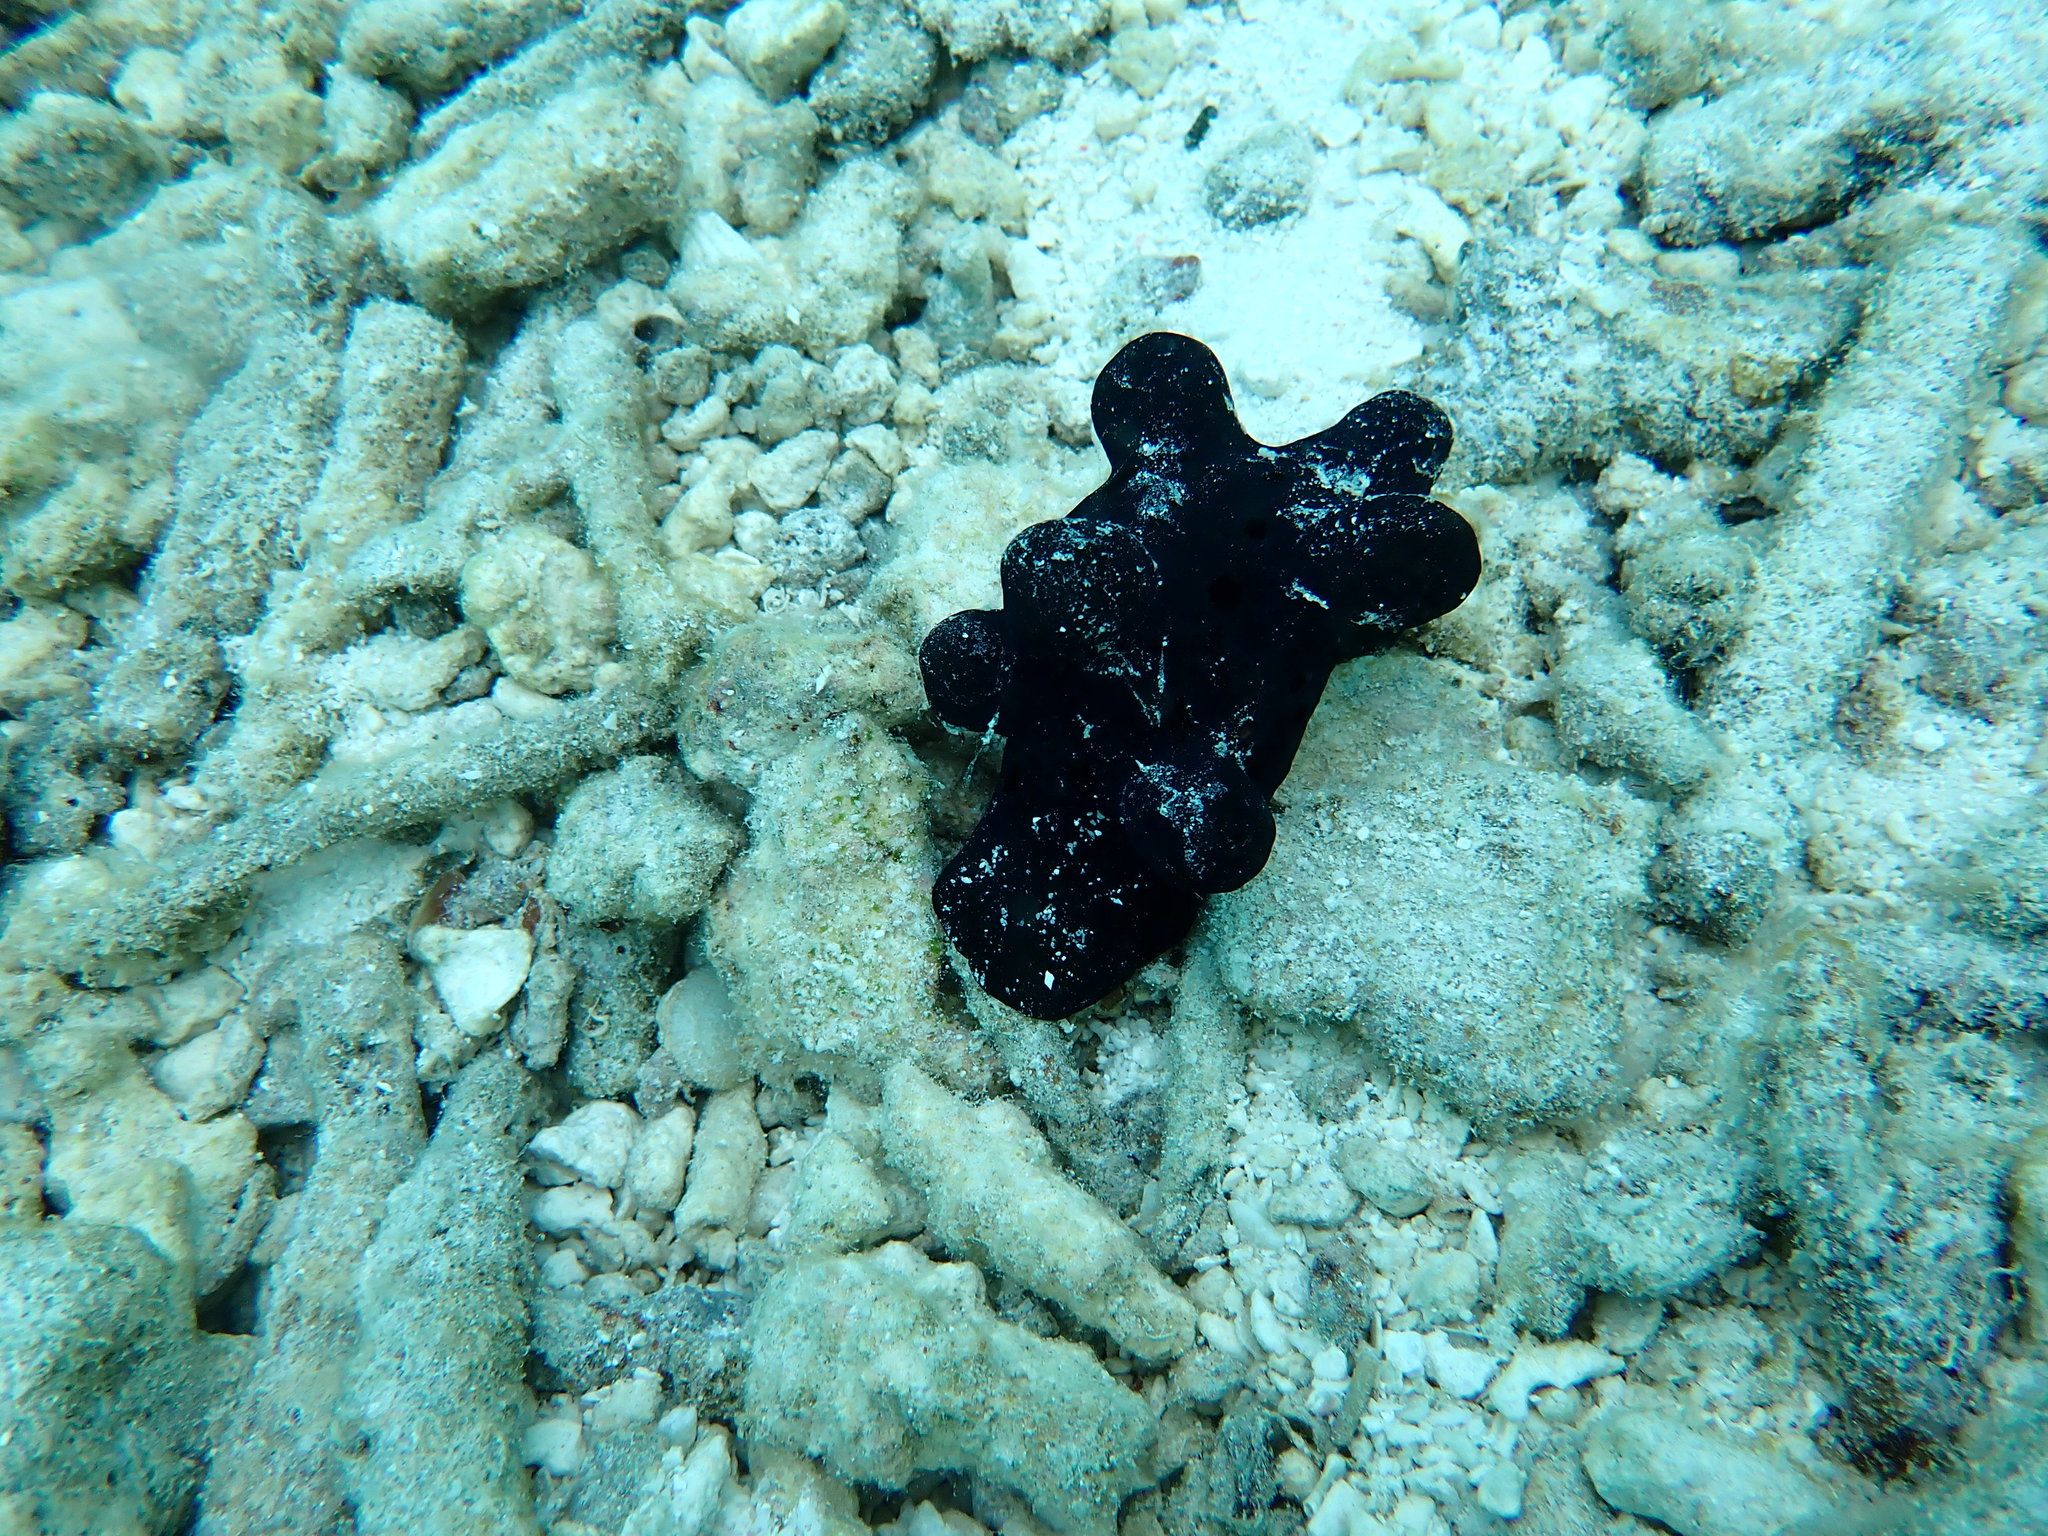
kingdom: Animalia
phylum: Mollusca
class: Gastropoda
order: Littorinimorpha
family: Velutinidae
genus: Coriocella
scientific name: Coriocella hibyae
